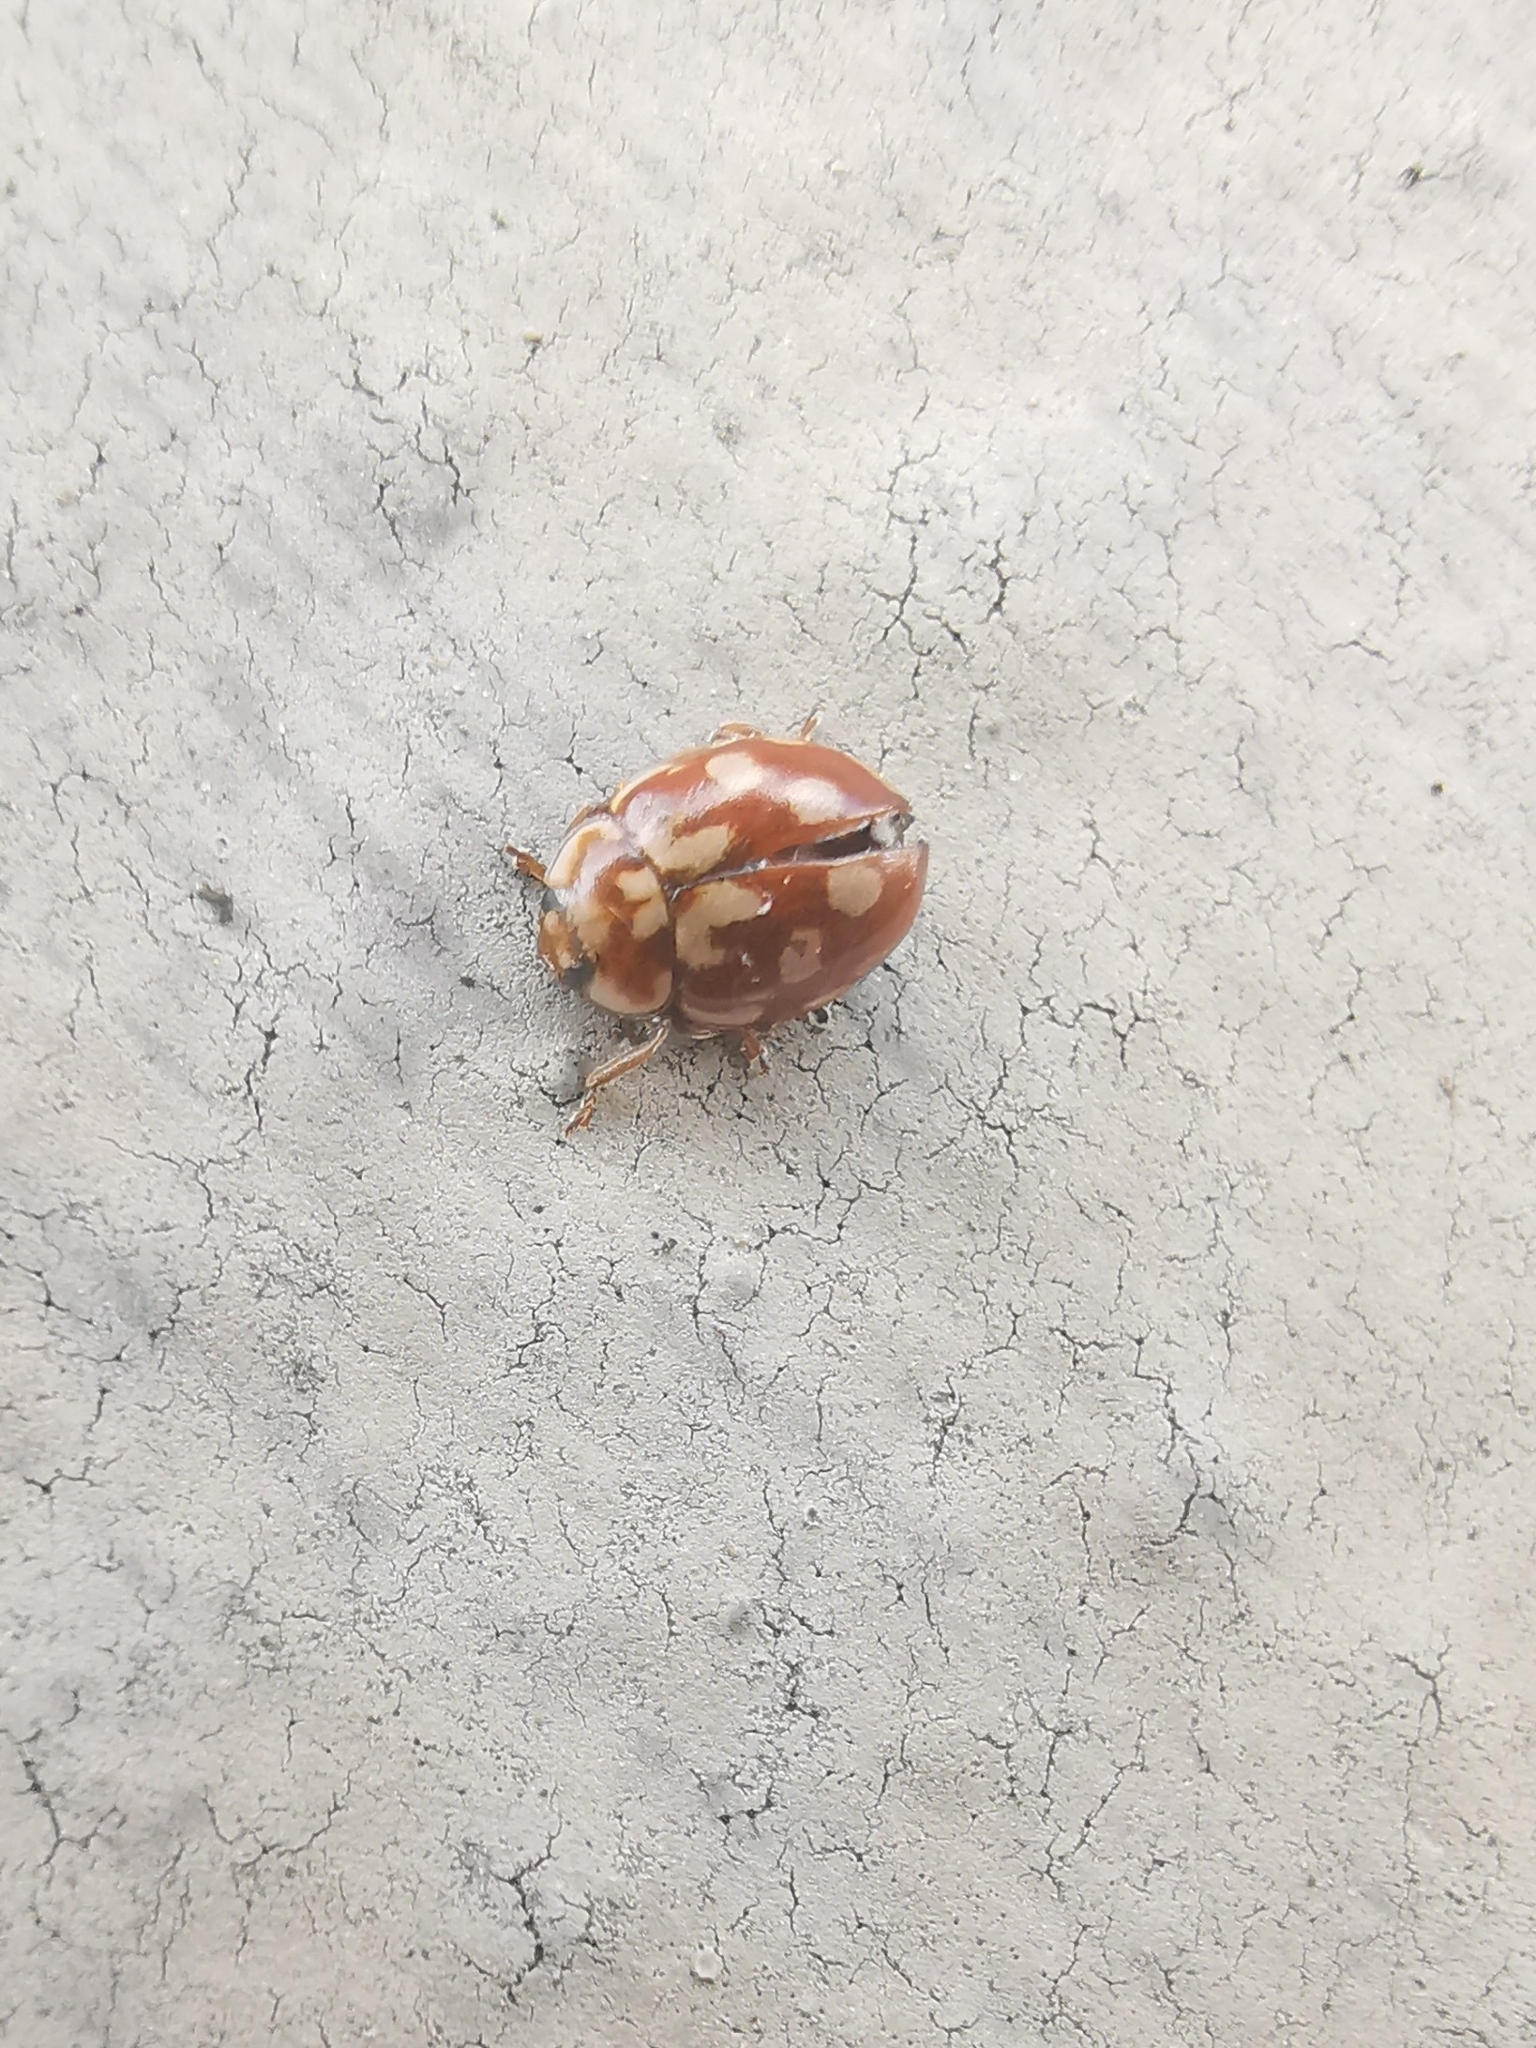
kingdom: Animalia
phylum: Arthropoda
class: Insecta
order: Coleoptera
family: Coccinellidae
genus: Myrrha
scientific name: Myrrha octodecimguttata
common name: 18-spot ladybird
